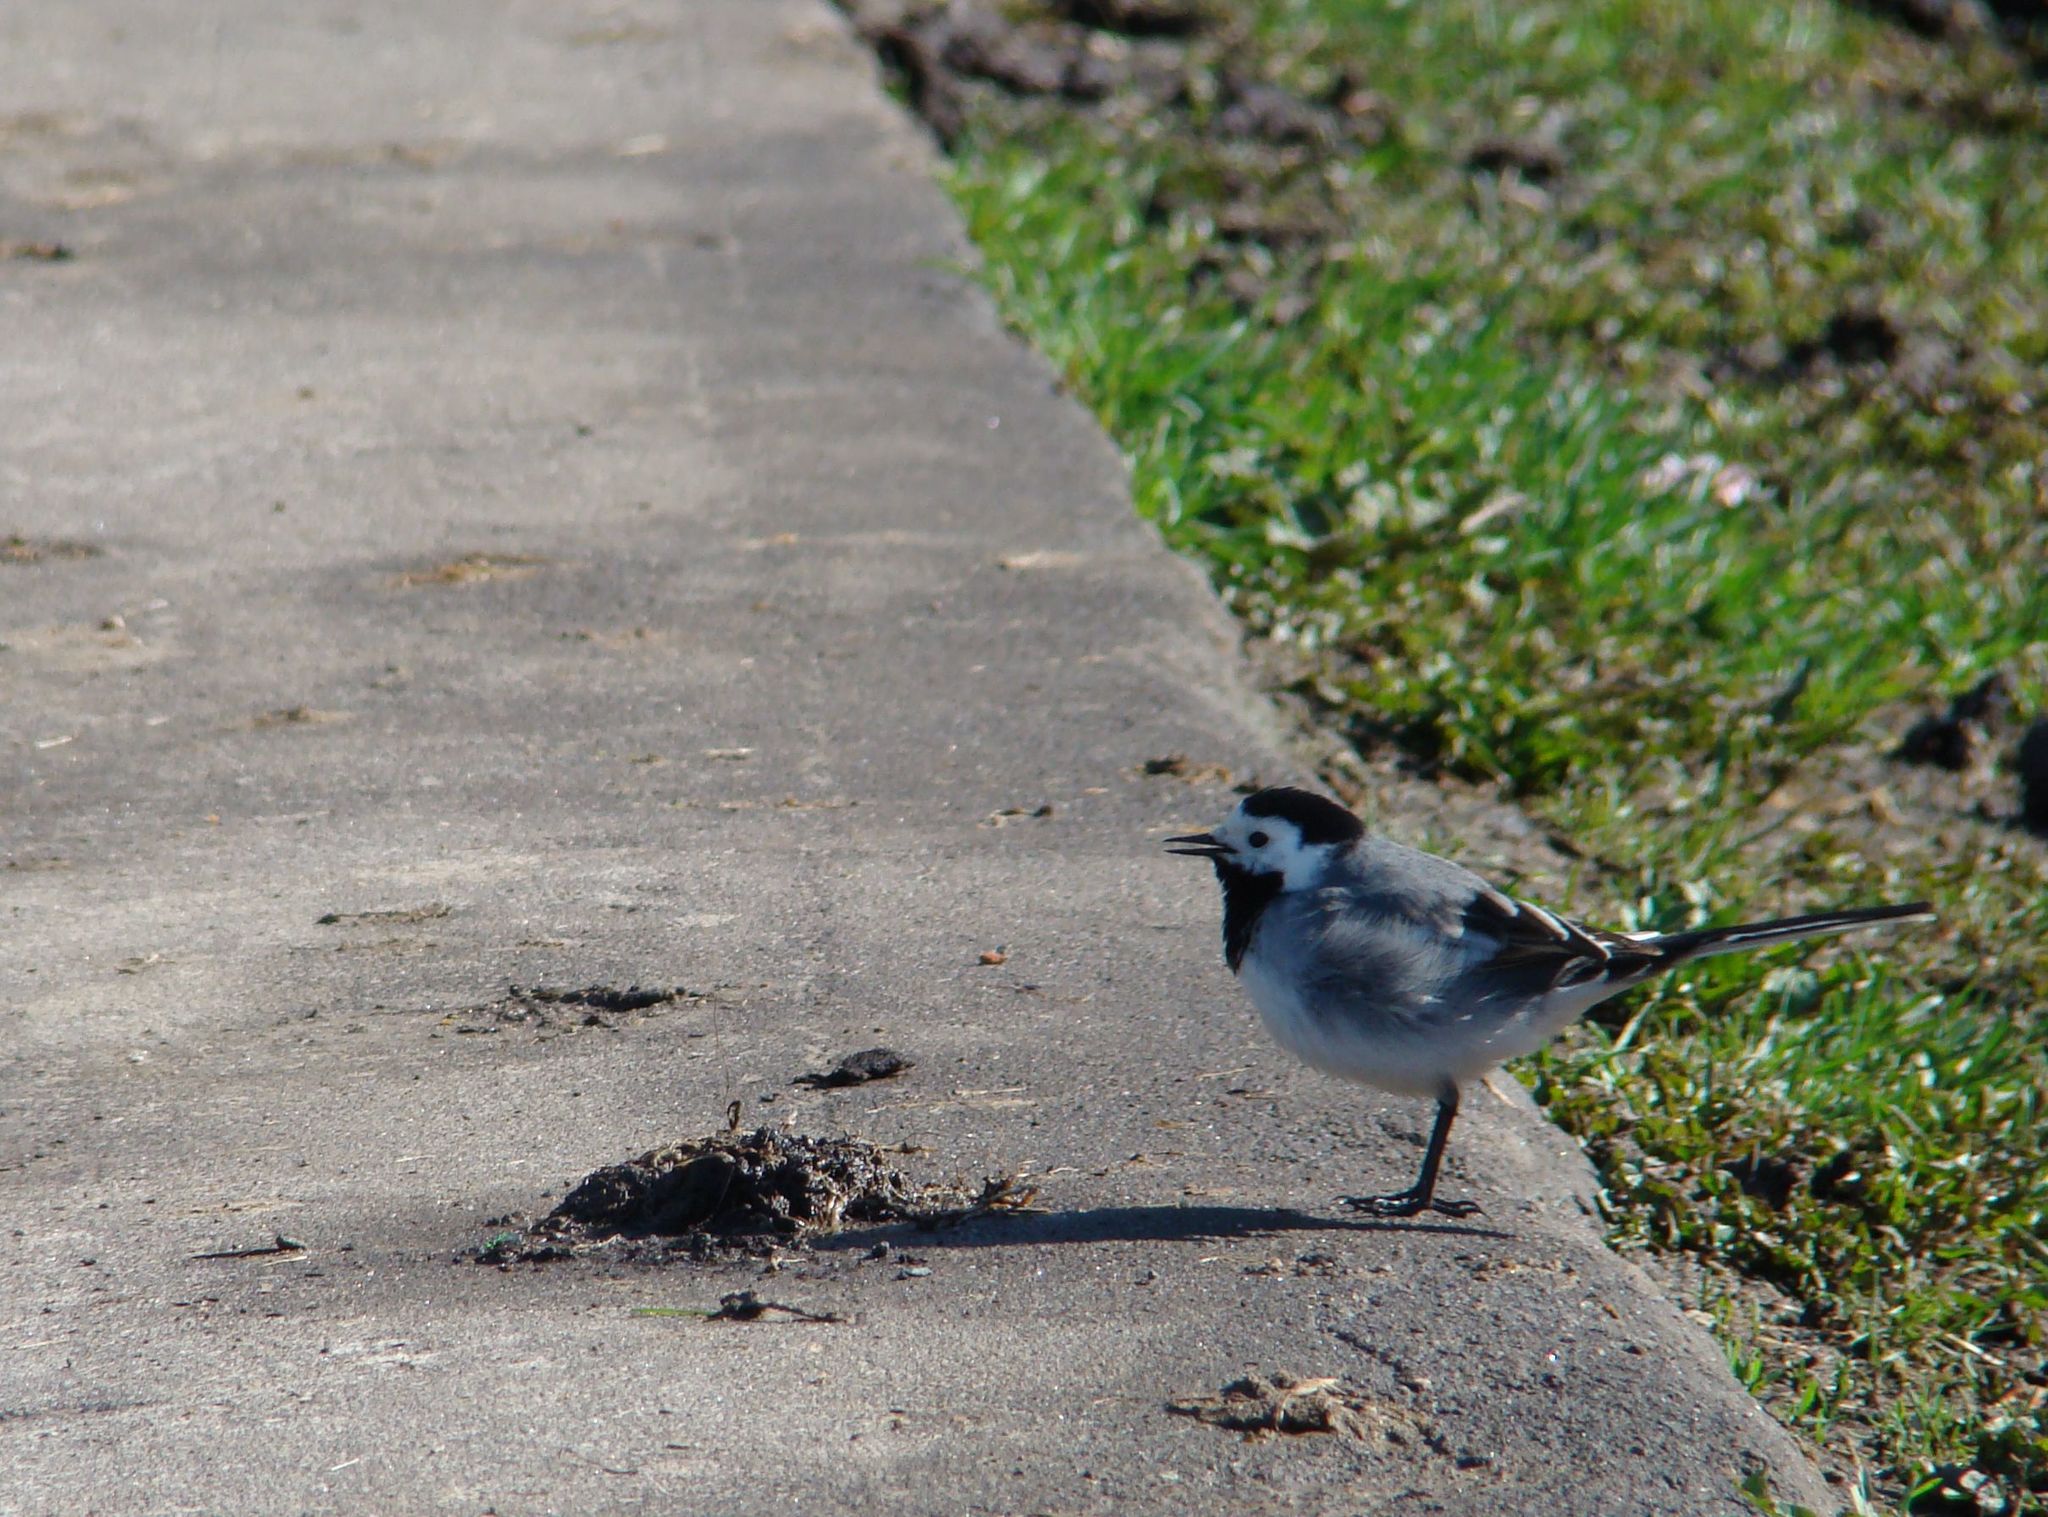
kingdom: Animalia
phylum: Chordata
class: Aves
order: Passeriformes
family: Motacillidae
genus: Motacilla
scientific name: Motacilla alba
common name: White wagtail
